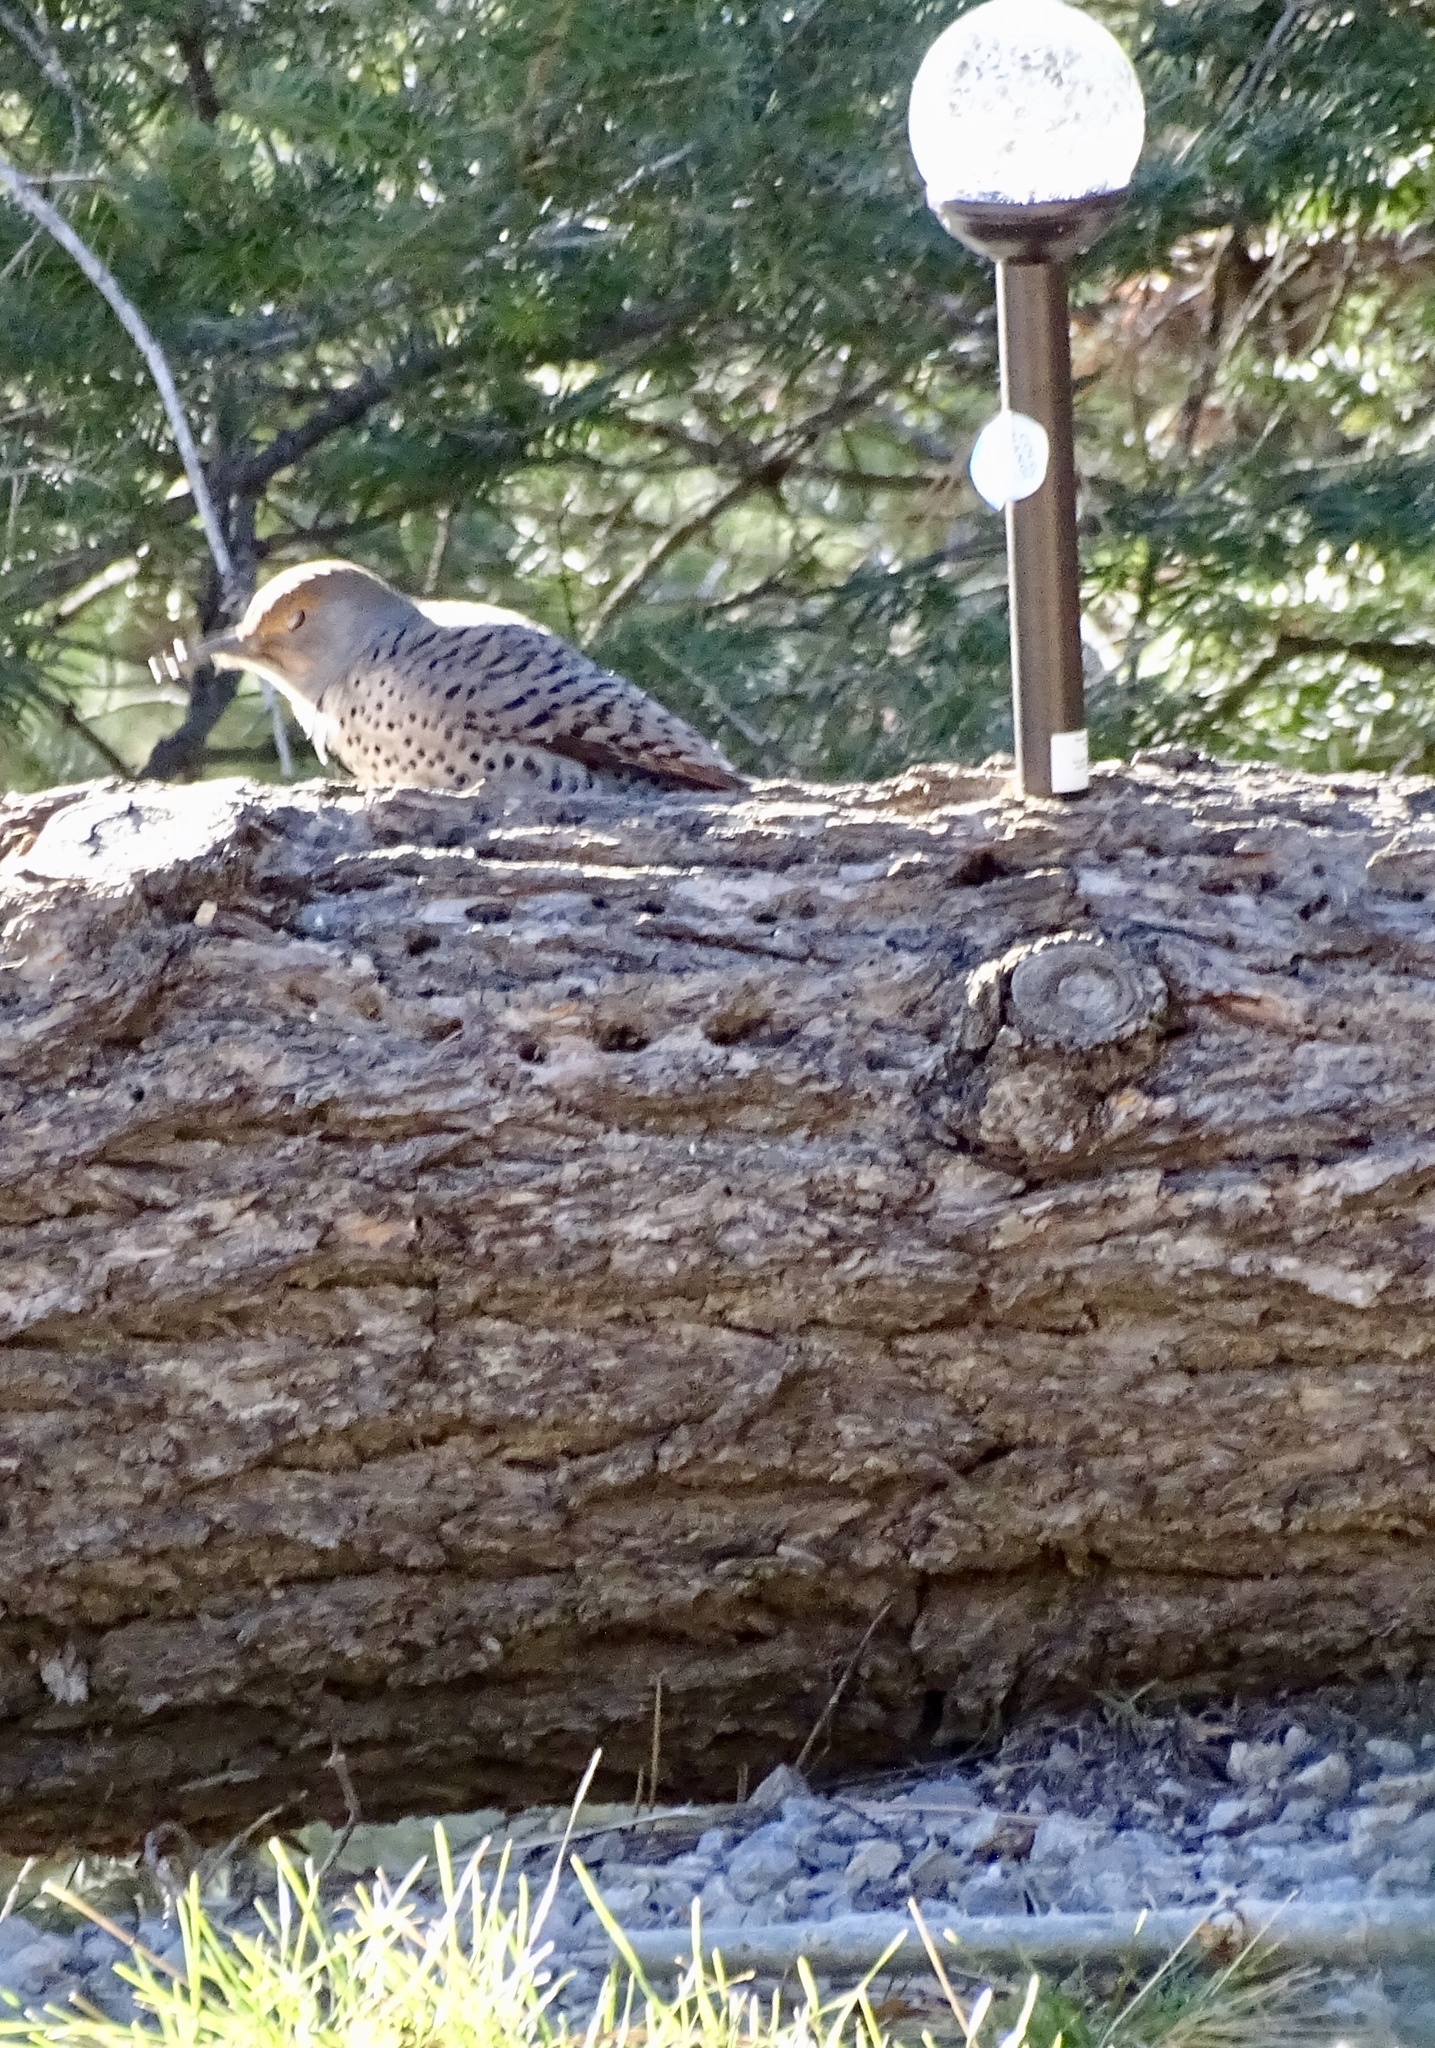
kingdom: Animalia
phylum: Chordata
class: Aves
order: Piciformes
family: Picidae
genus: Colaptes
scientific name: Colaptes auratus
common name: Northern flicker
